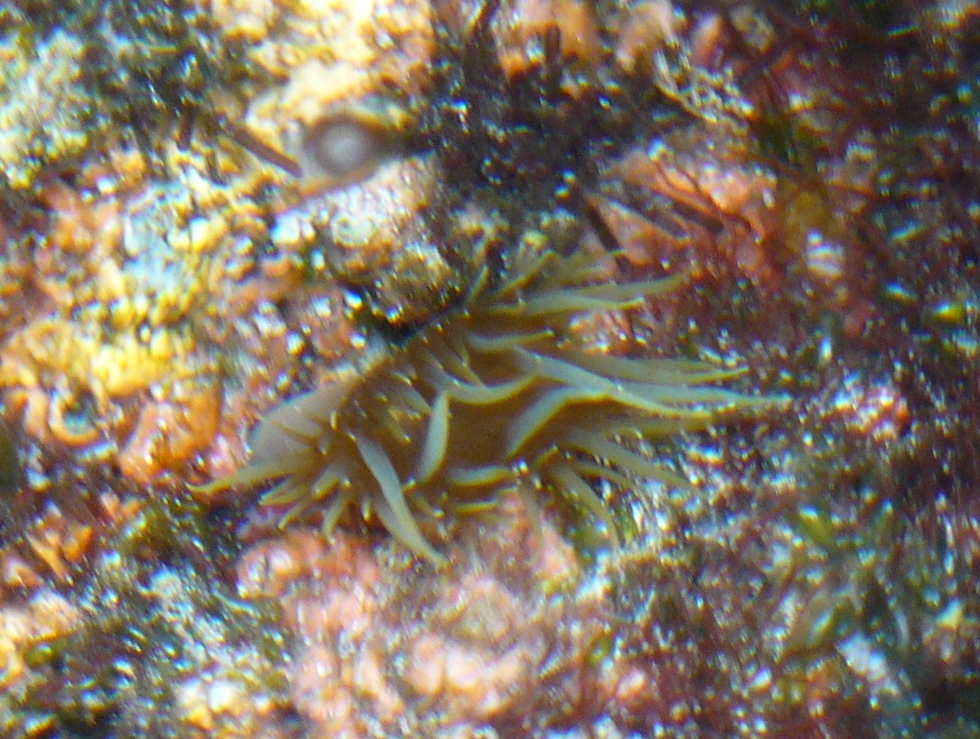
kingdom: Animalia
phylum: Cnidaria
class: Anthozoa
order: Actiniaria
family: Aiptasiidae
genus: Aiptasia
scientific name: Aiptasia couchii
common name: Trumpet anemone
